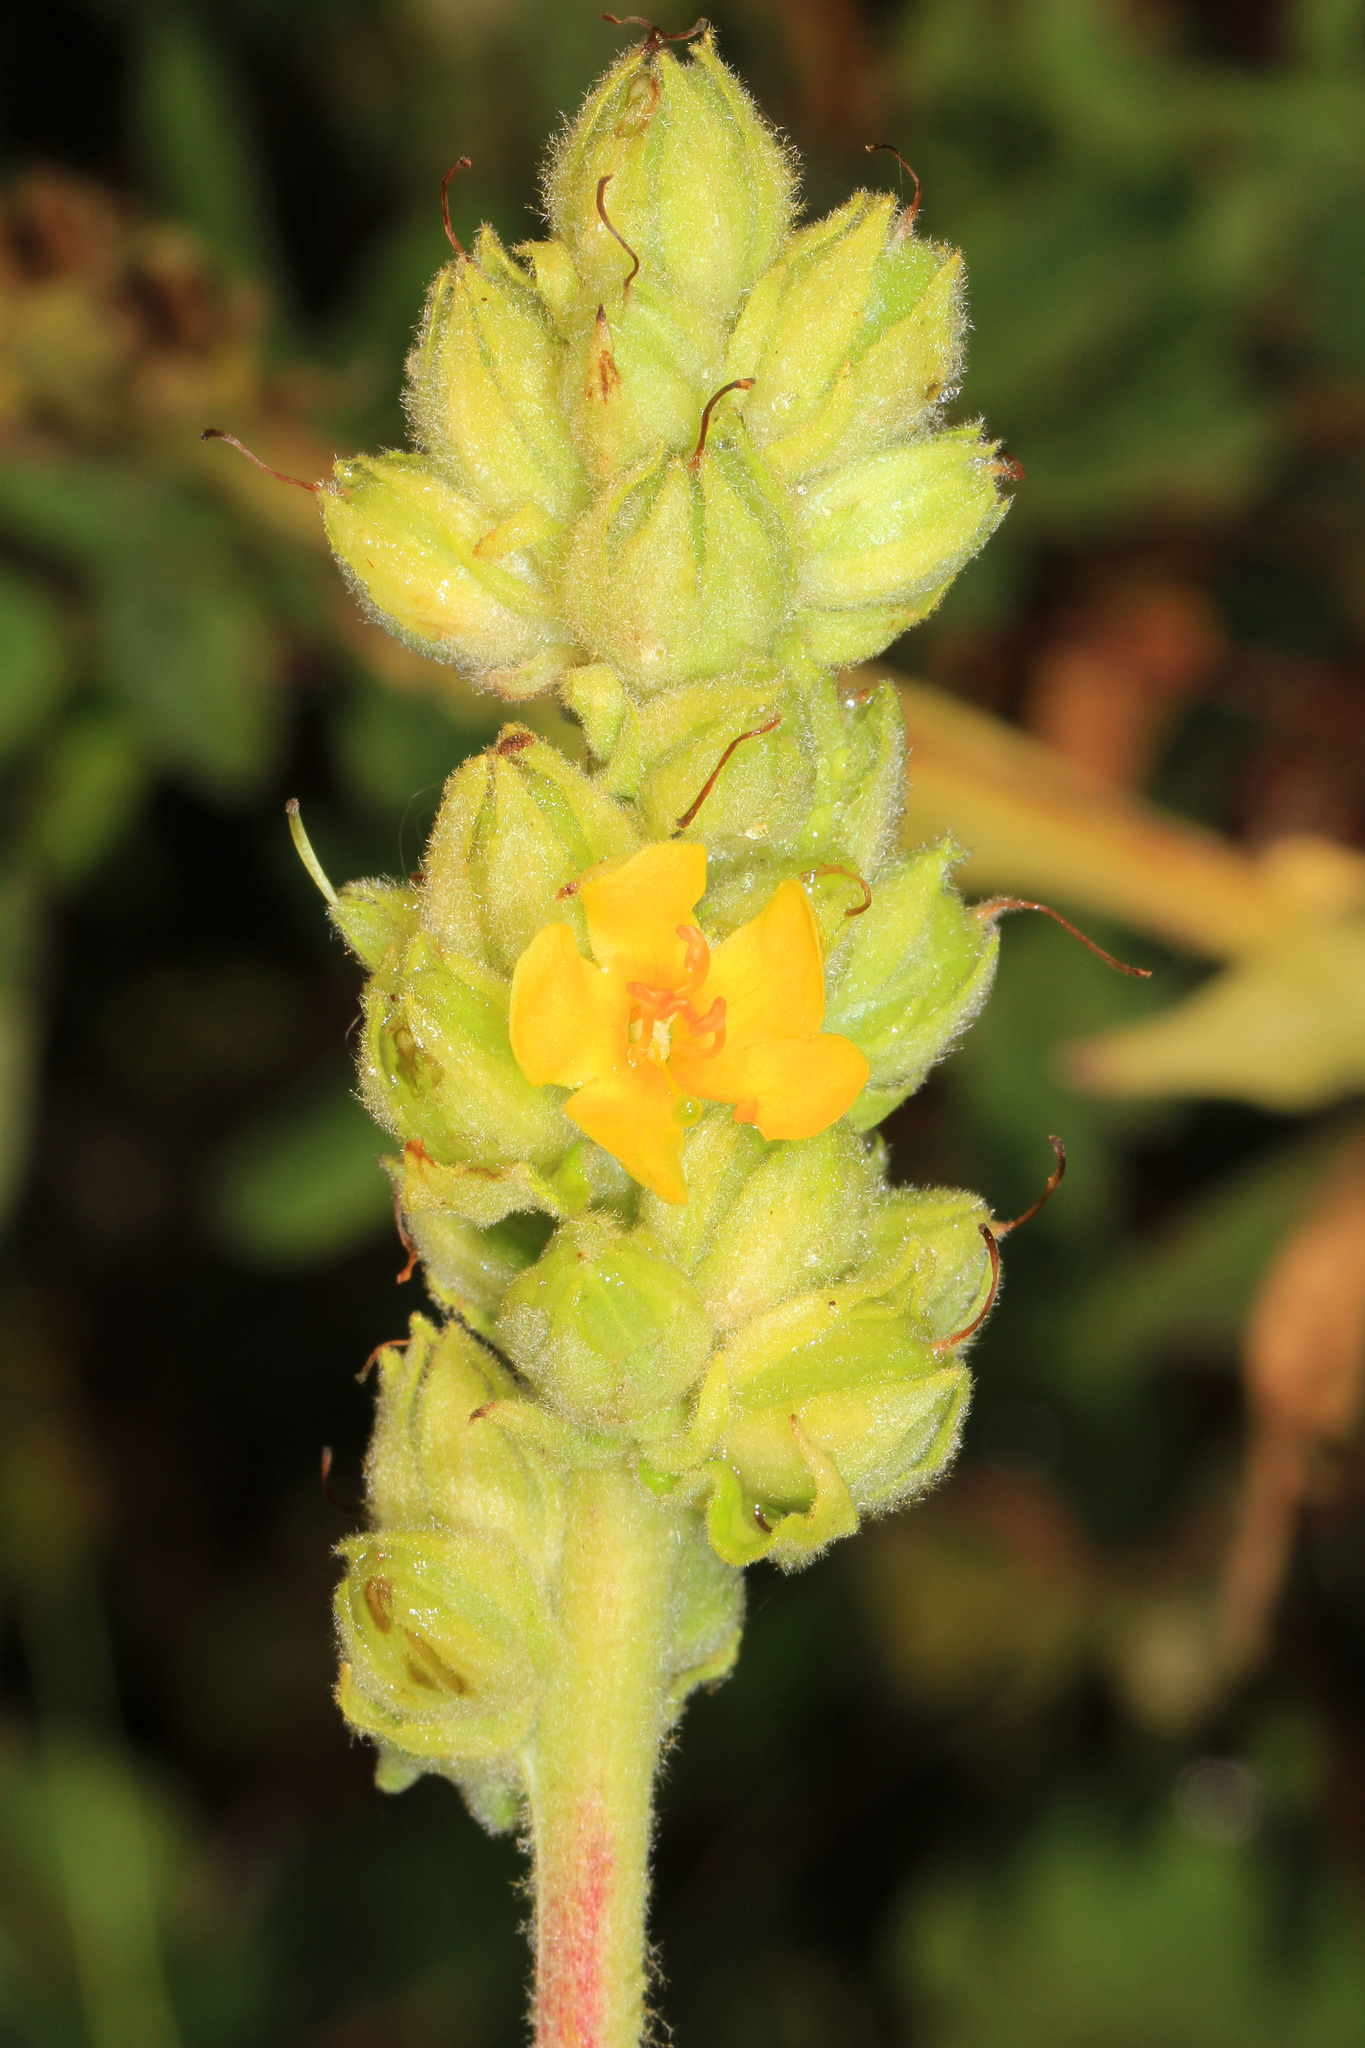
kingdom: Plantae
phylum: Tracheophyta
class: Magnoliopsida
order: Lamiales
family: Scrophulariaceae
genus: Verbascum
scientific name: Verbascum thapsus
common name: Common mullein
